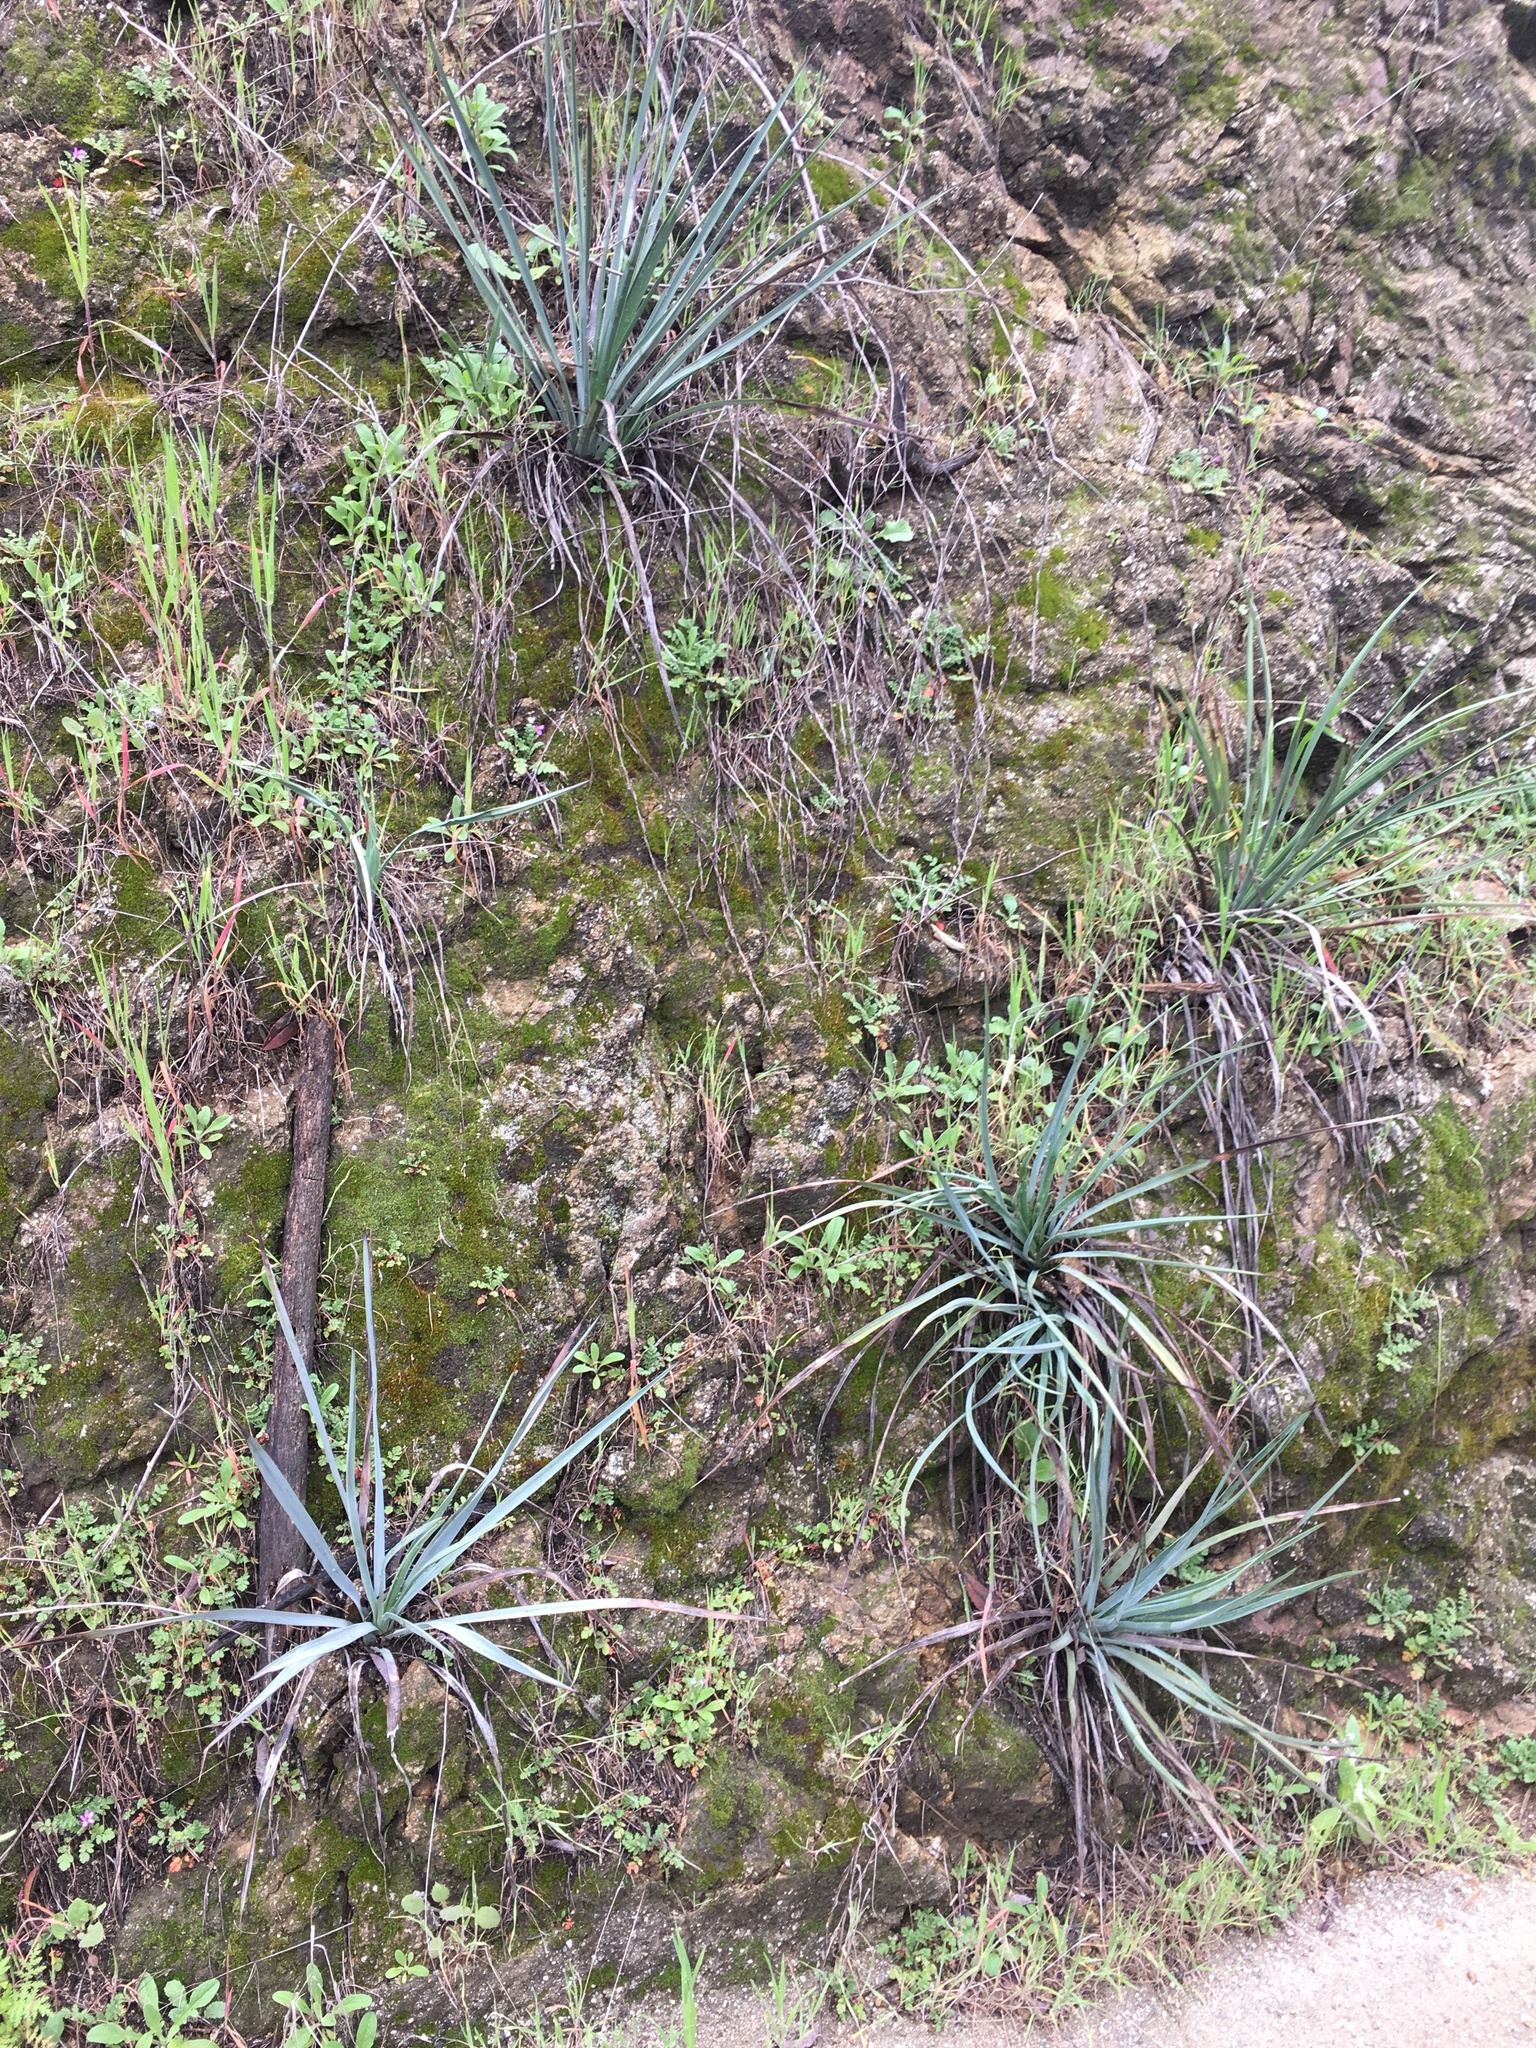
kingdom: Plantae
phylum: Tracheophyta
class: Liliopsida
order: Asparagales
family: Asparagaceae
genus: Hesperoyucca
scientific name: Hesperoyucca whipplei
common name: Our lord's-candle
